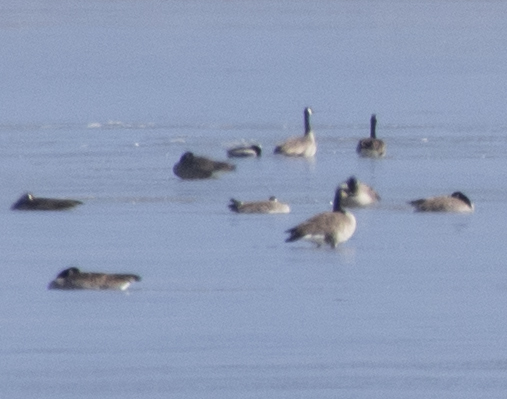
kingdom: Animalia
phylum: Chordata
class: Aves
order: Anseriformes
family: Anatidae
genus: Branta
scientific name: Branta canadensis
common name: Canada goose
